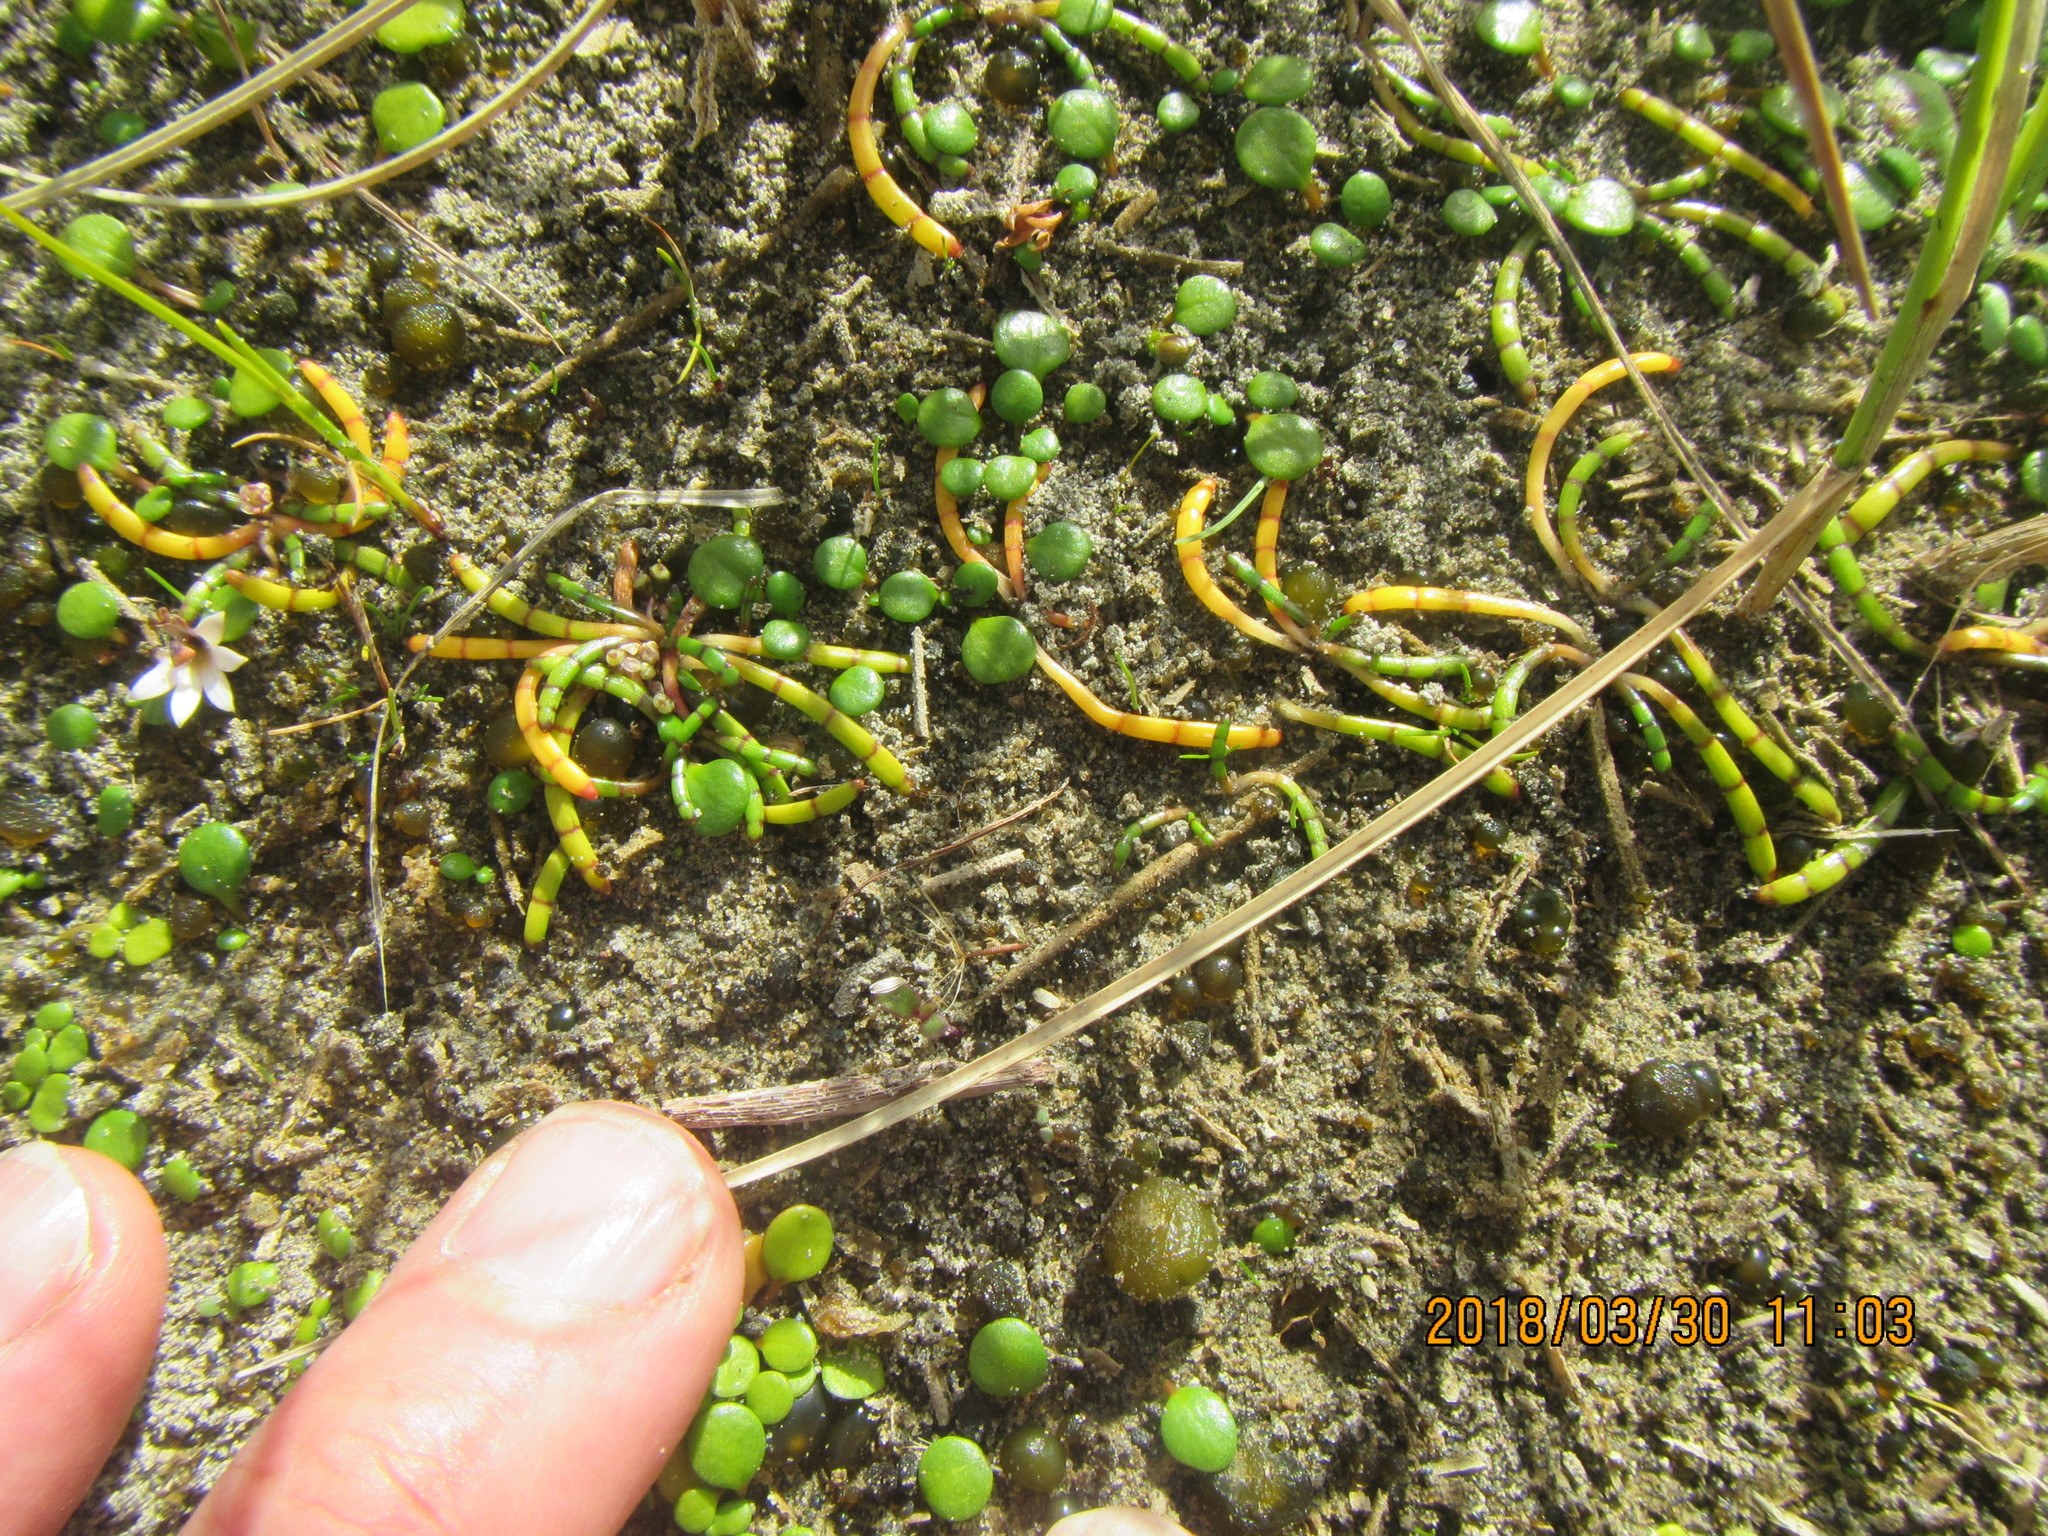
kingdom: Plantae
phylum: Tracheophyta
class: Magnoliopsida
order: Apiales
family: Apiaceae
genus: Lilaeopsis
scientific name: Lilaeopsis novae-zelandiae
